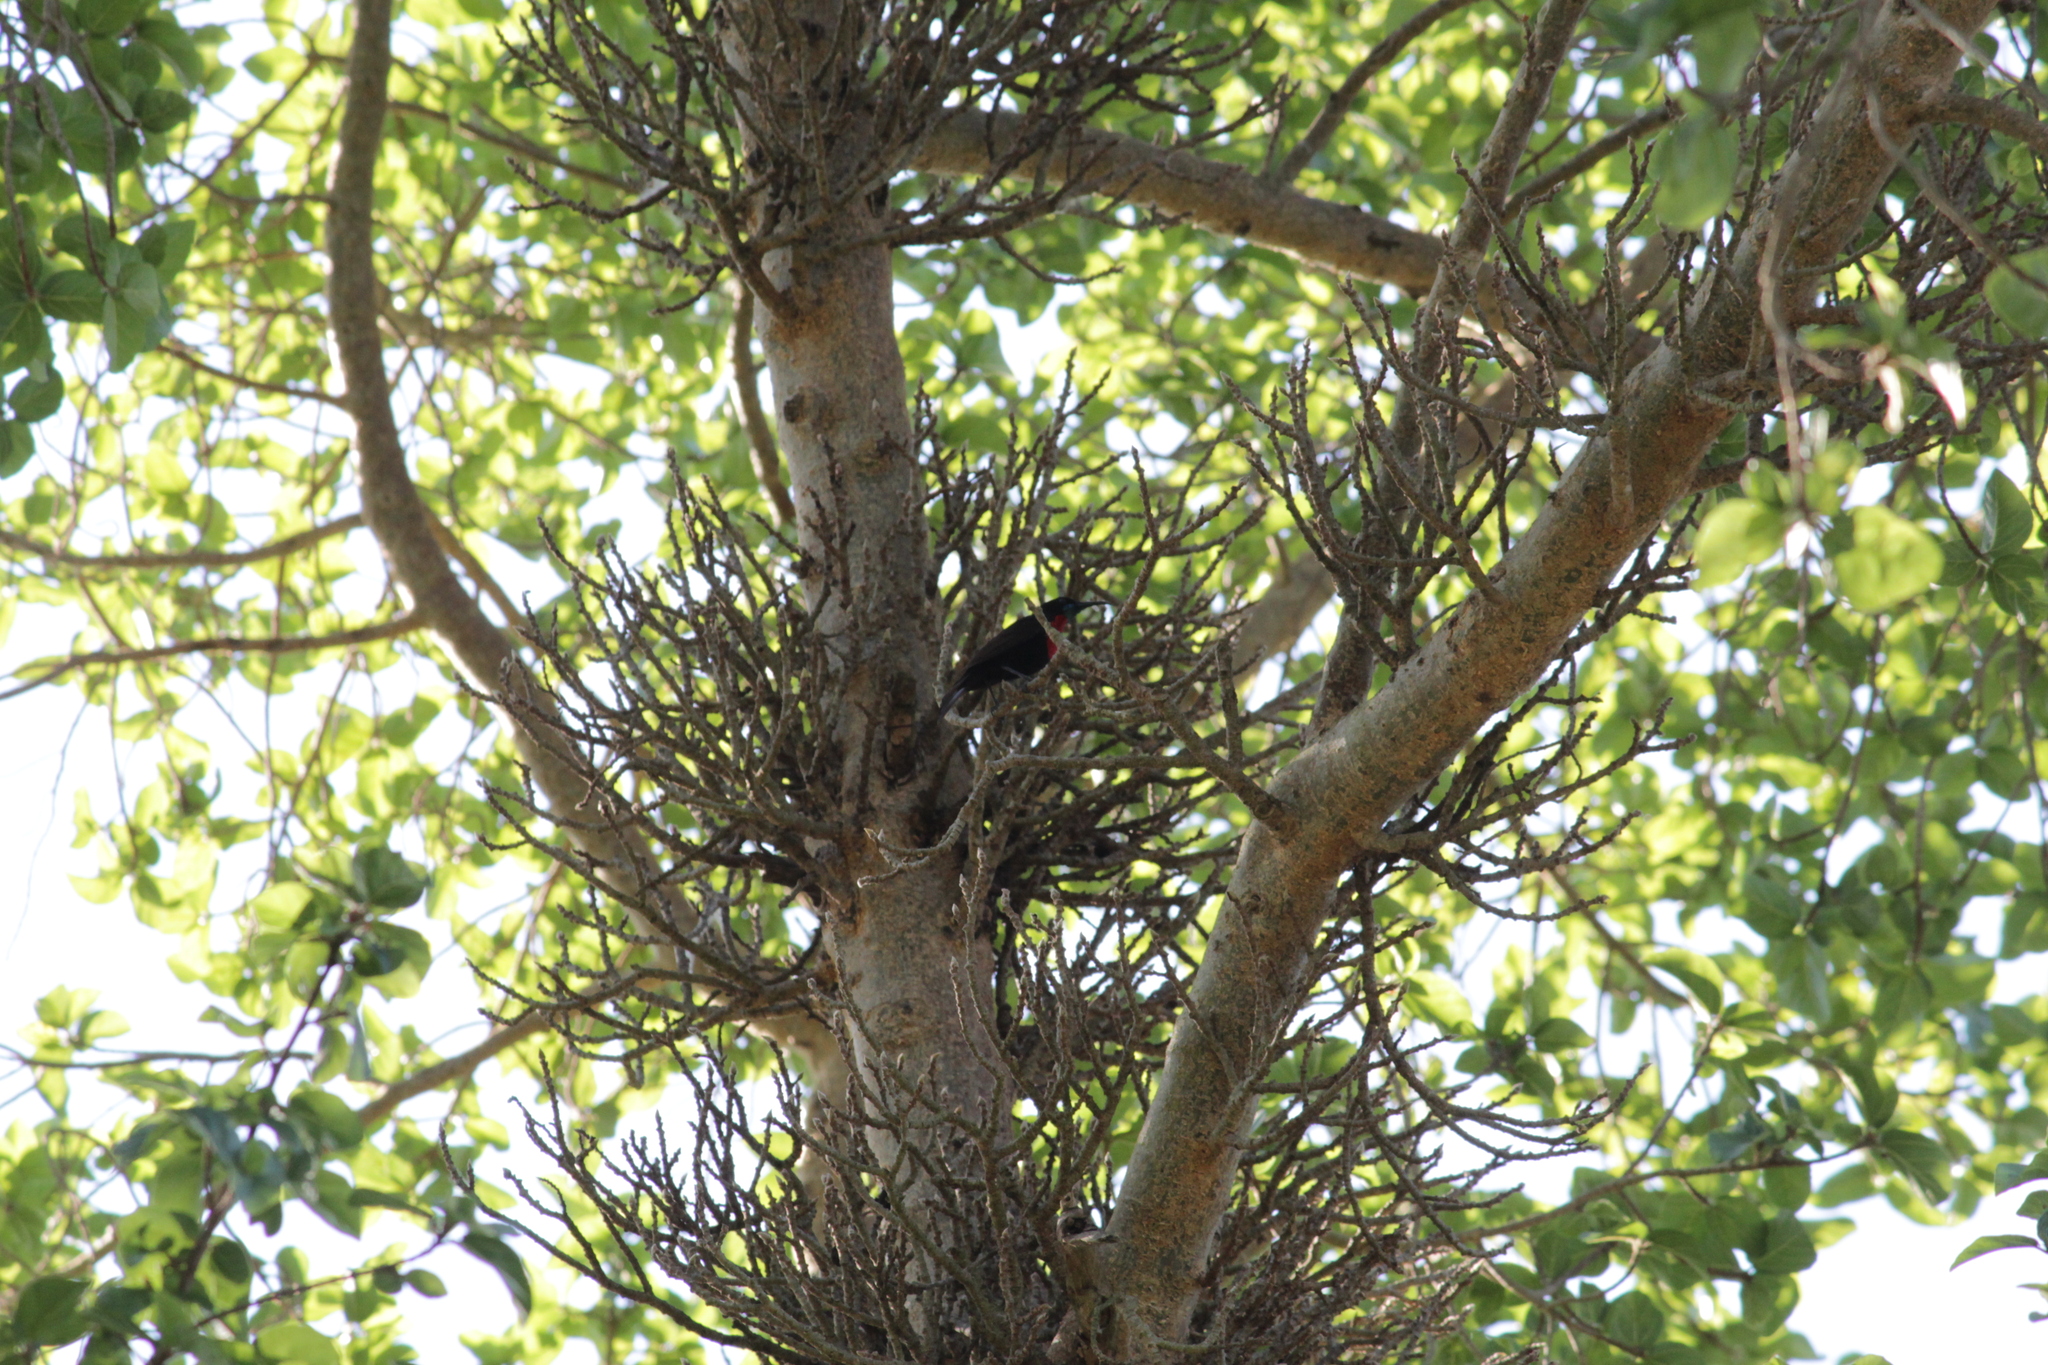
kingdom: Animalia
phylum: Chordata
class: Aves
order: Passeriformes
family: Nectariniidae
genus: Chalcomitra
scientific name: Chalcomitra senegalensis
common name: Scarlet-chested sunbird
